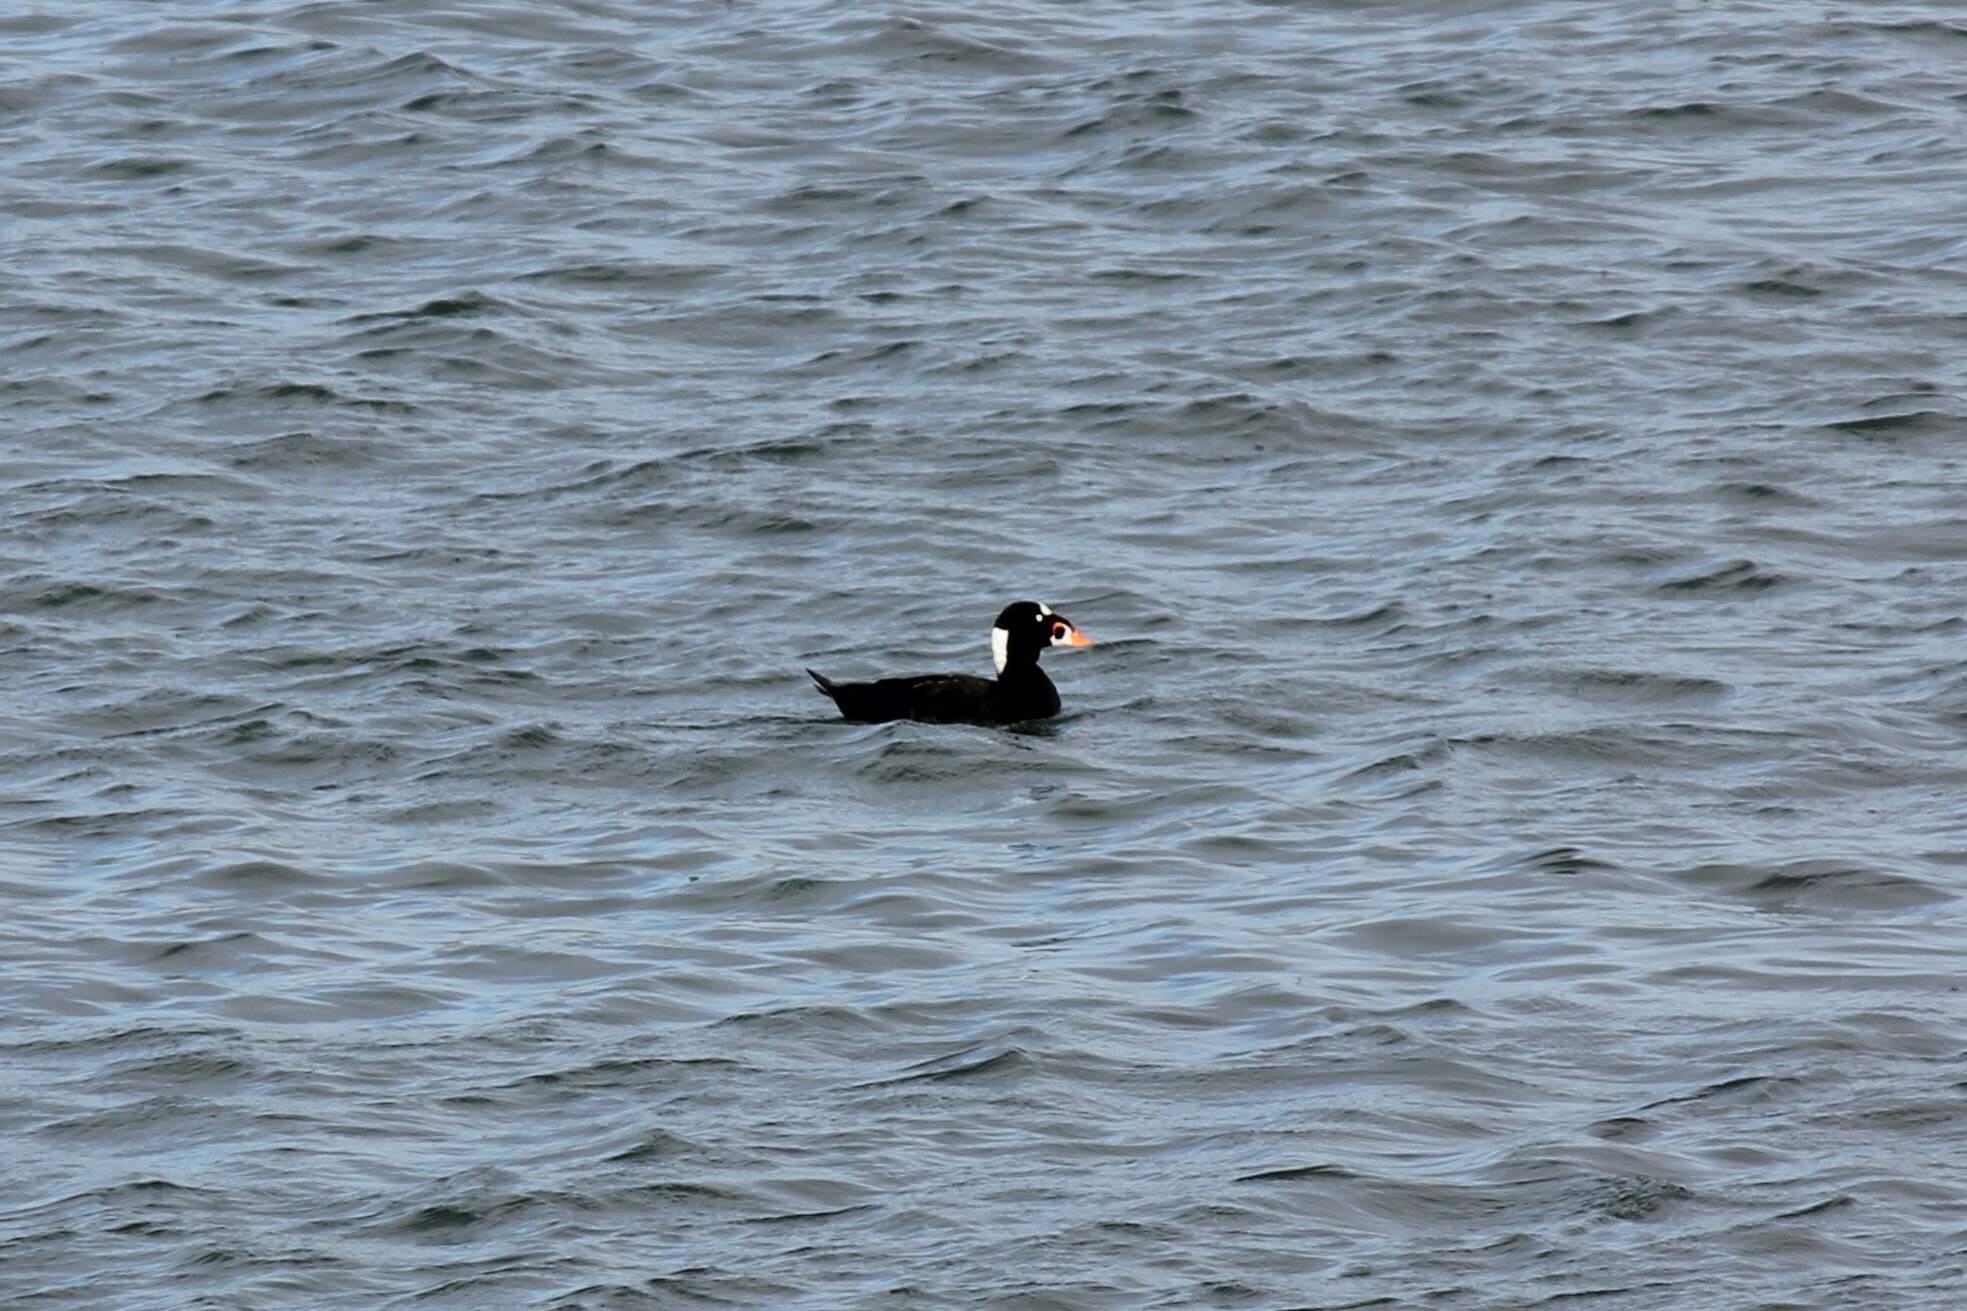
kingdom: Animalia
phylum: Chordata
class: Aves
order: Anseriformes
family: Anatidae
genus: Melanitta
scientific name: Melanitta perspicillata
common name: Surf scoter
